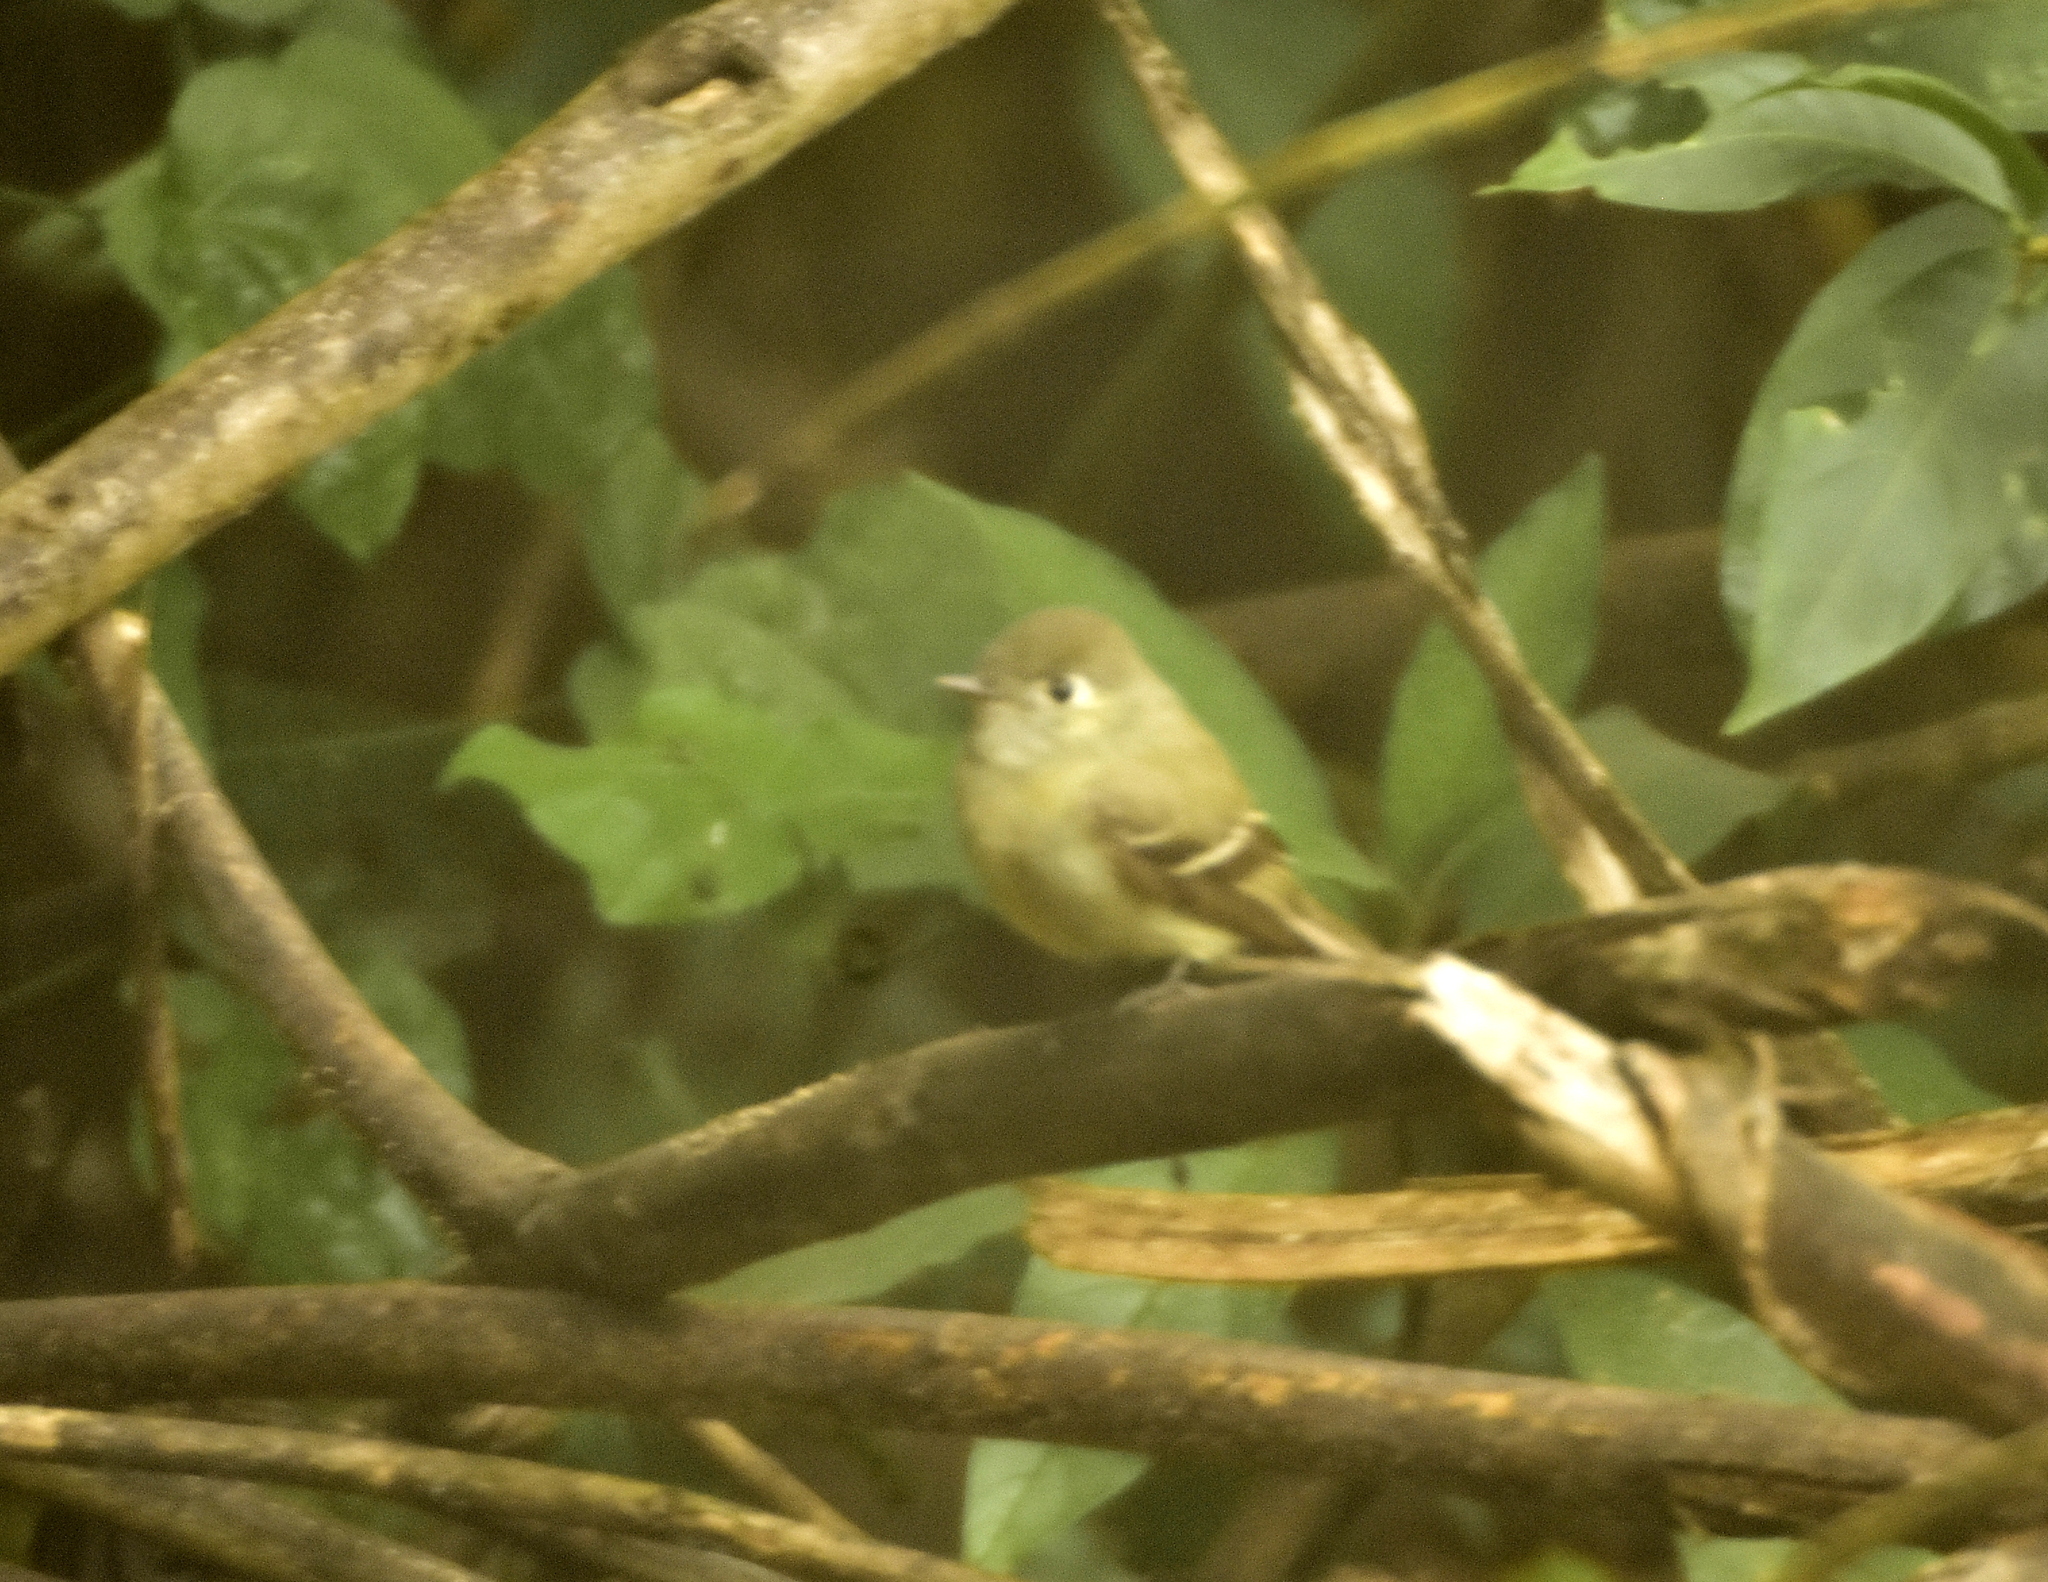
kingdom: Animalia
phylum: Chordata
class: Aves
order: Passeriformes
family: Tyrannidae
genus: Empidonax
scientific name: Empidonax hammondii
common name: Hammond's flycatcher
